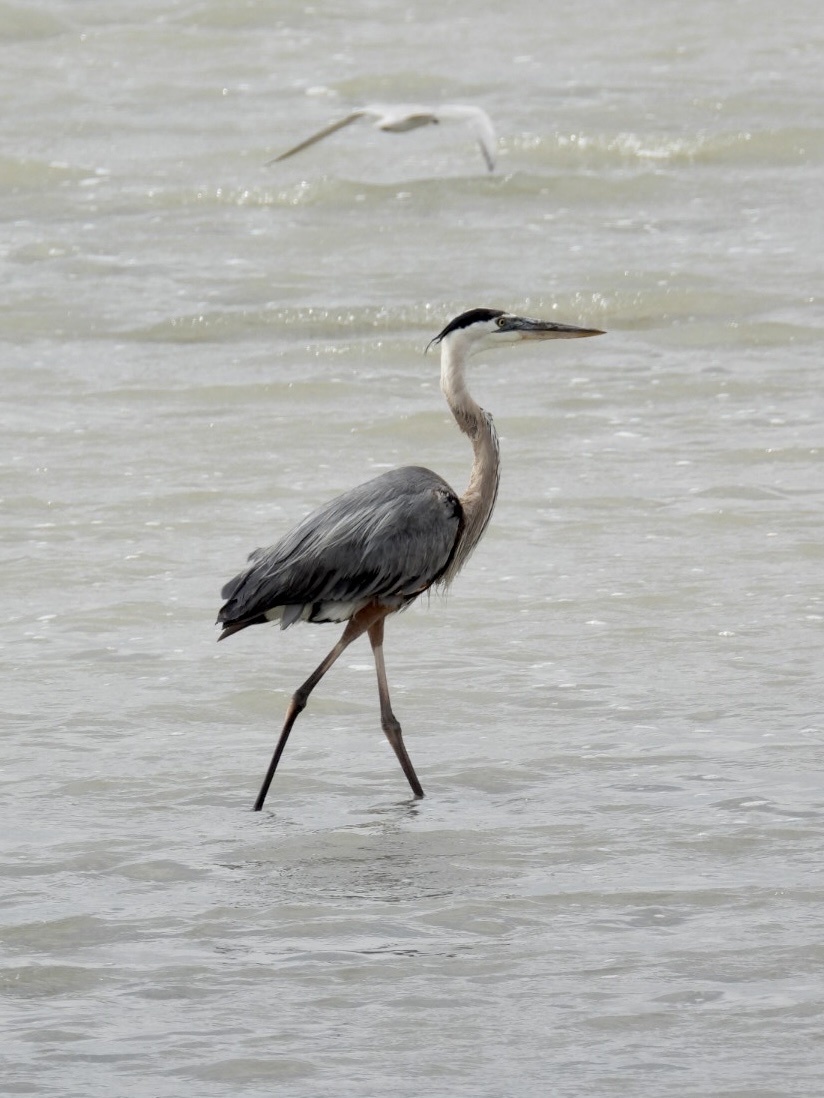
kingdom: Animalia
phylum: Chordata
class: Aves
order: Pelecaniformes
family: Ardeidae
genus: Ardea
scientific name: Ardea herodias
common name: Great blue heron
